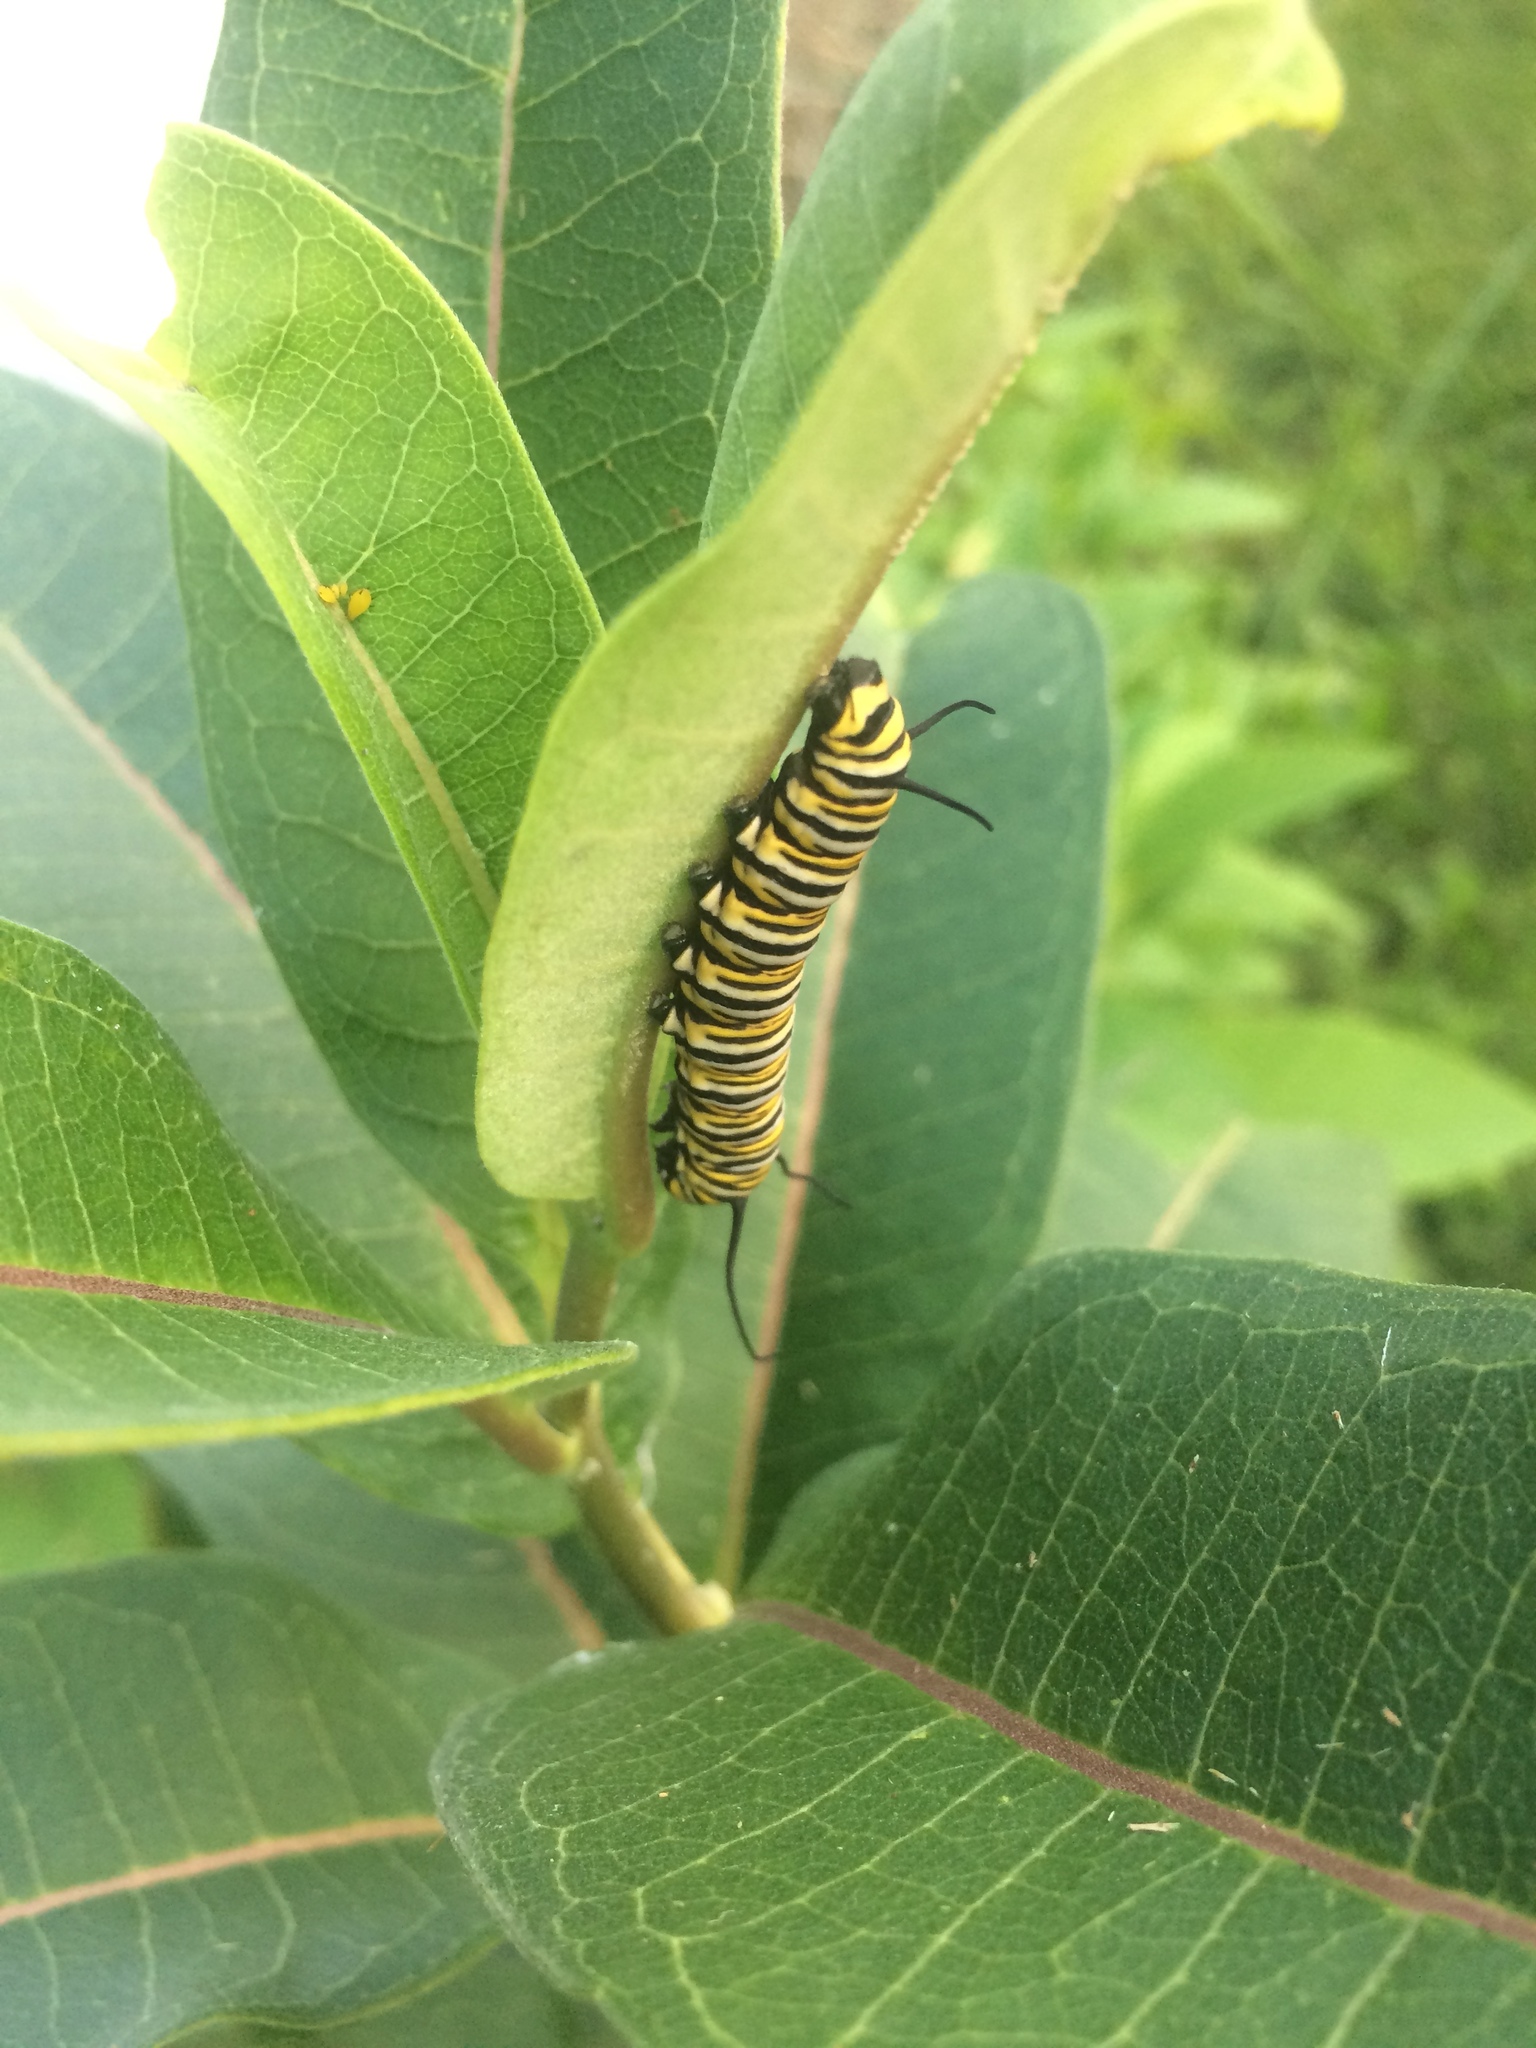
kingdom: Animalia
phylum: Arthropoda
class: Insecta
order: Lepidoptera
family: Nymphalidae
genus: Danaus
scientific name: Danaus plexippus
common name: Monarch
